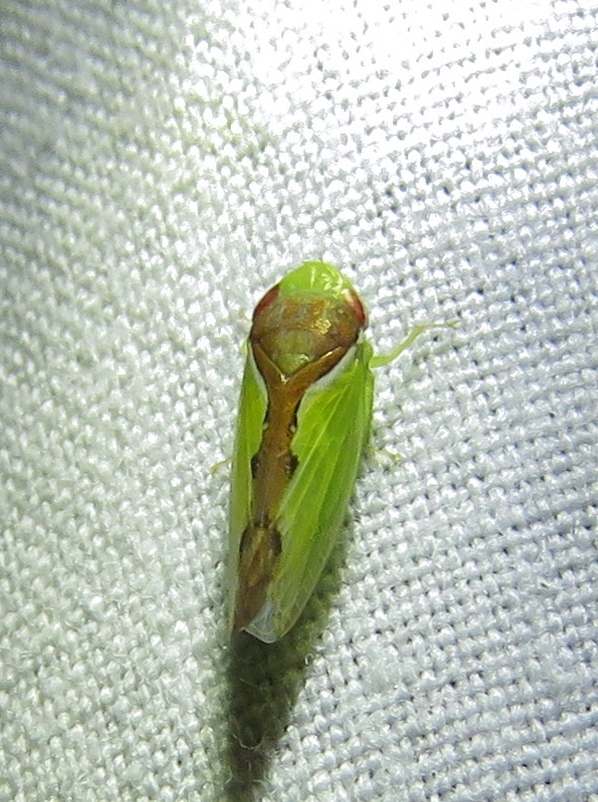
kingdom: Animalia
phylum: Arthropoda
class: Insecta
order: Hemiptera
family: Cicadellidae
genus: Omansobara ing
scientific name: Omansobara ing Omansobara palliolata
